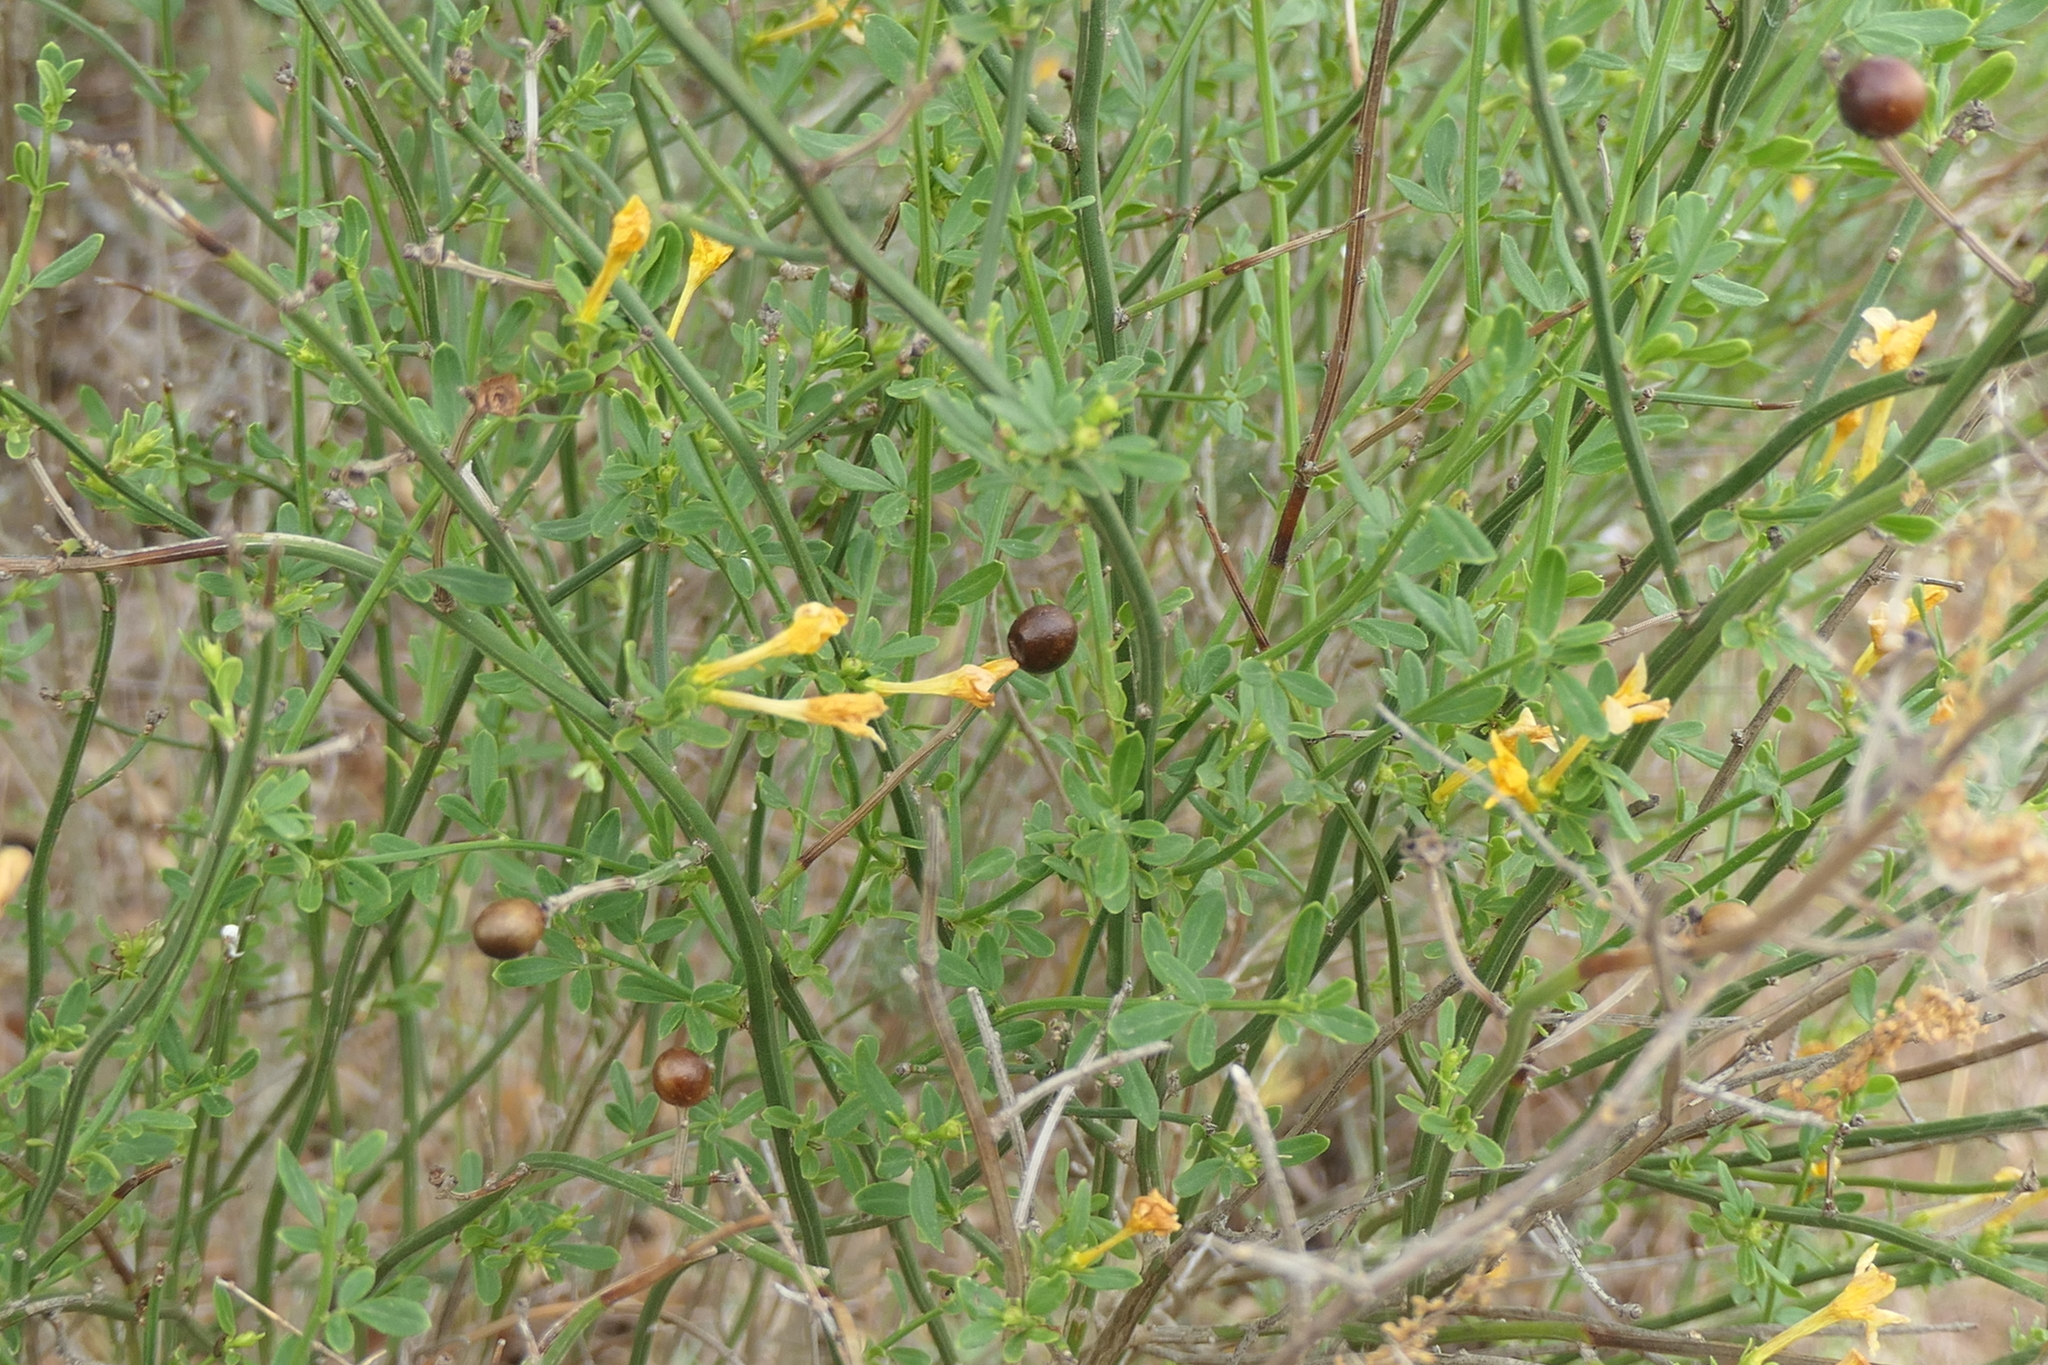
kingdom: Plantae
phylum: Tracheophyta
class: Magnoliopsida
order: Lamiales
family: Oleaceae
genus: Chrysojasminum
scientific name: Chrysojasminum fruticans
